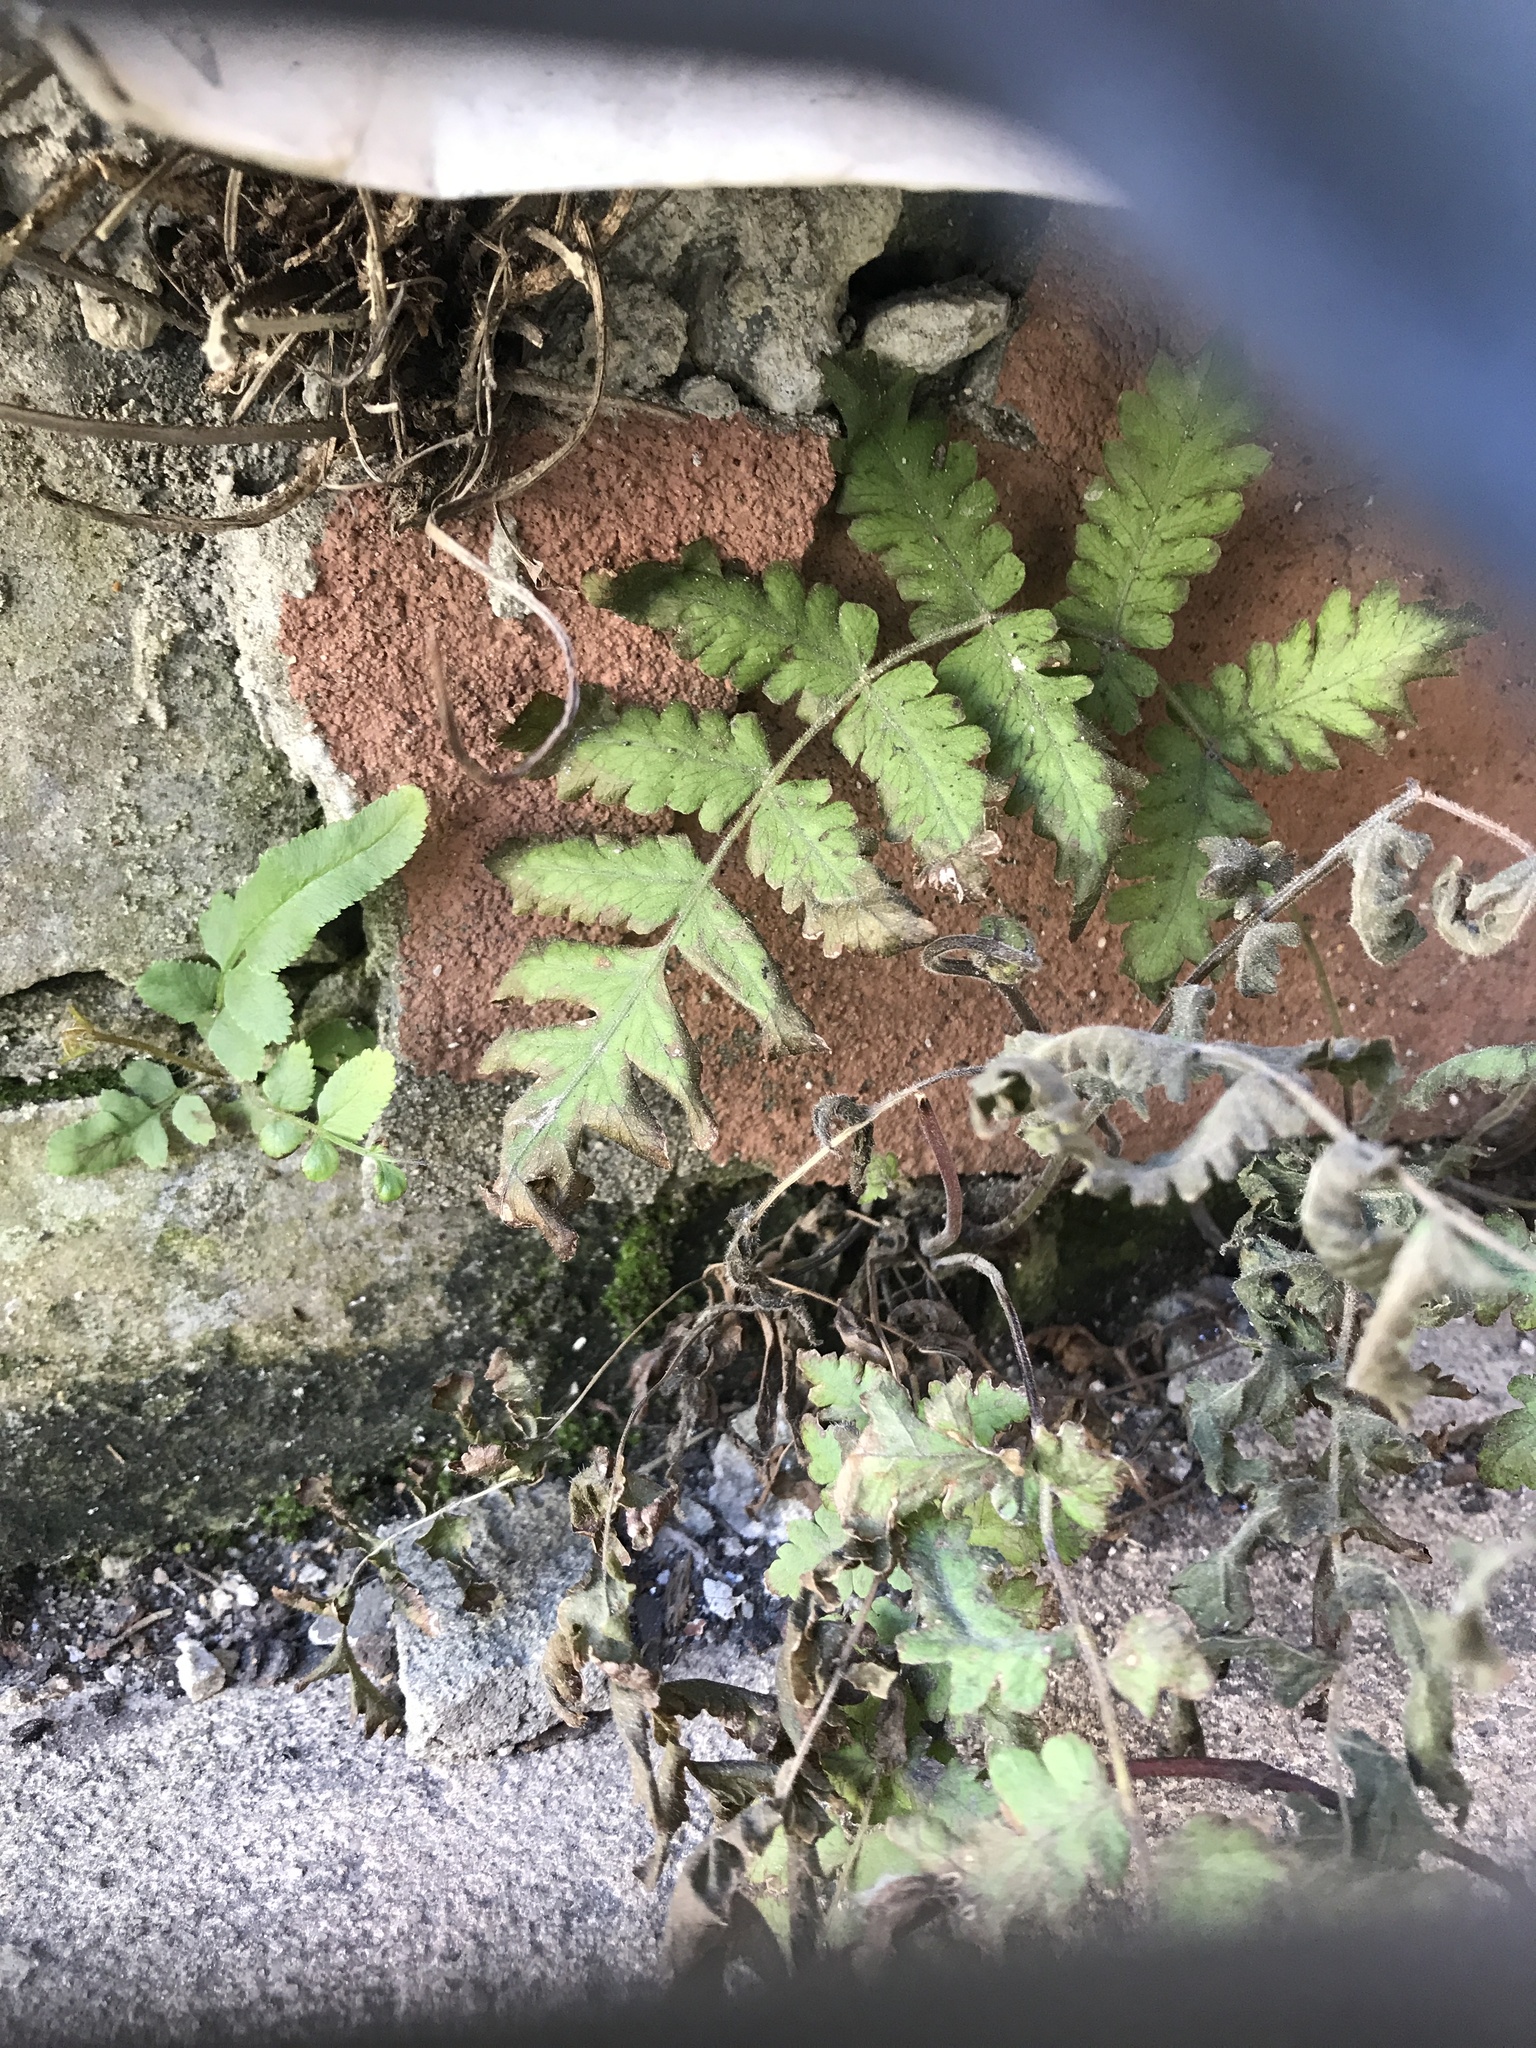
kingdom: Plantae
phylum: Tracheophyta
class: Polypodiopsida
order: Polypodiales
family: Thelypteridaceae
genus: Christella
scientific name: Christella dentata
